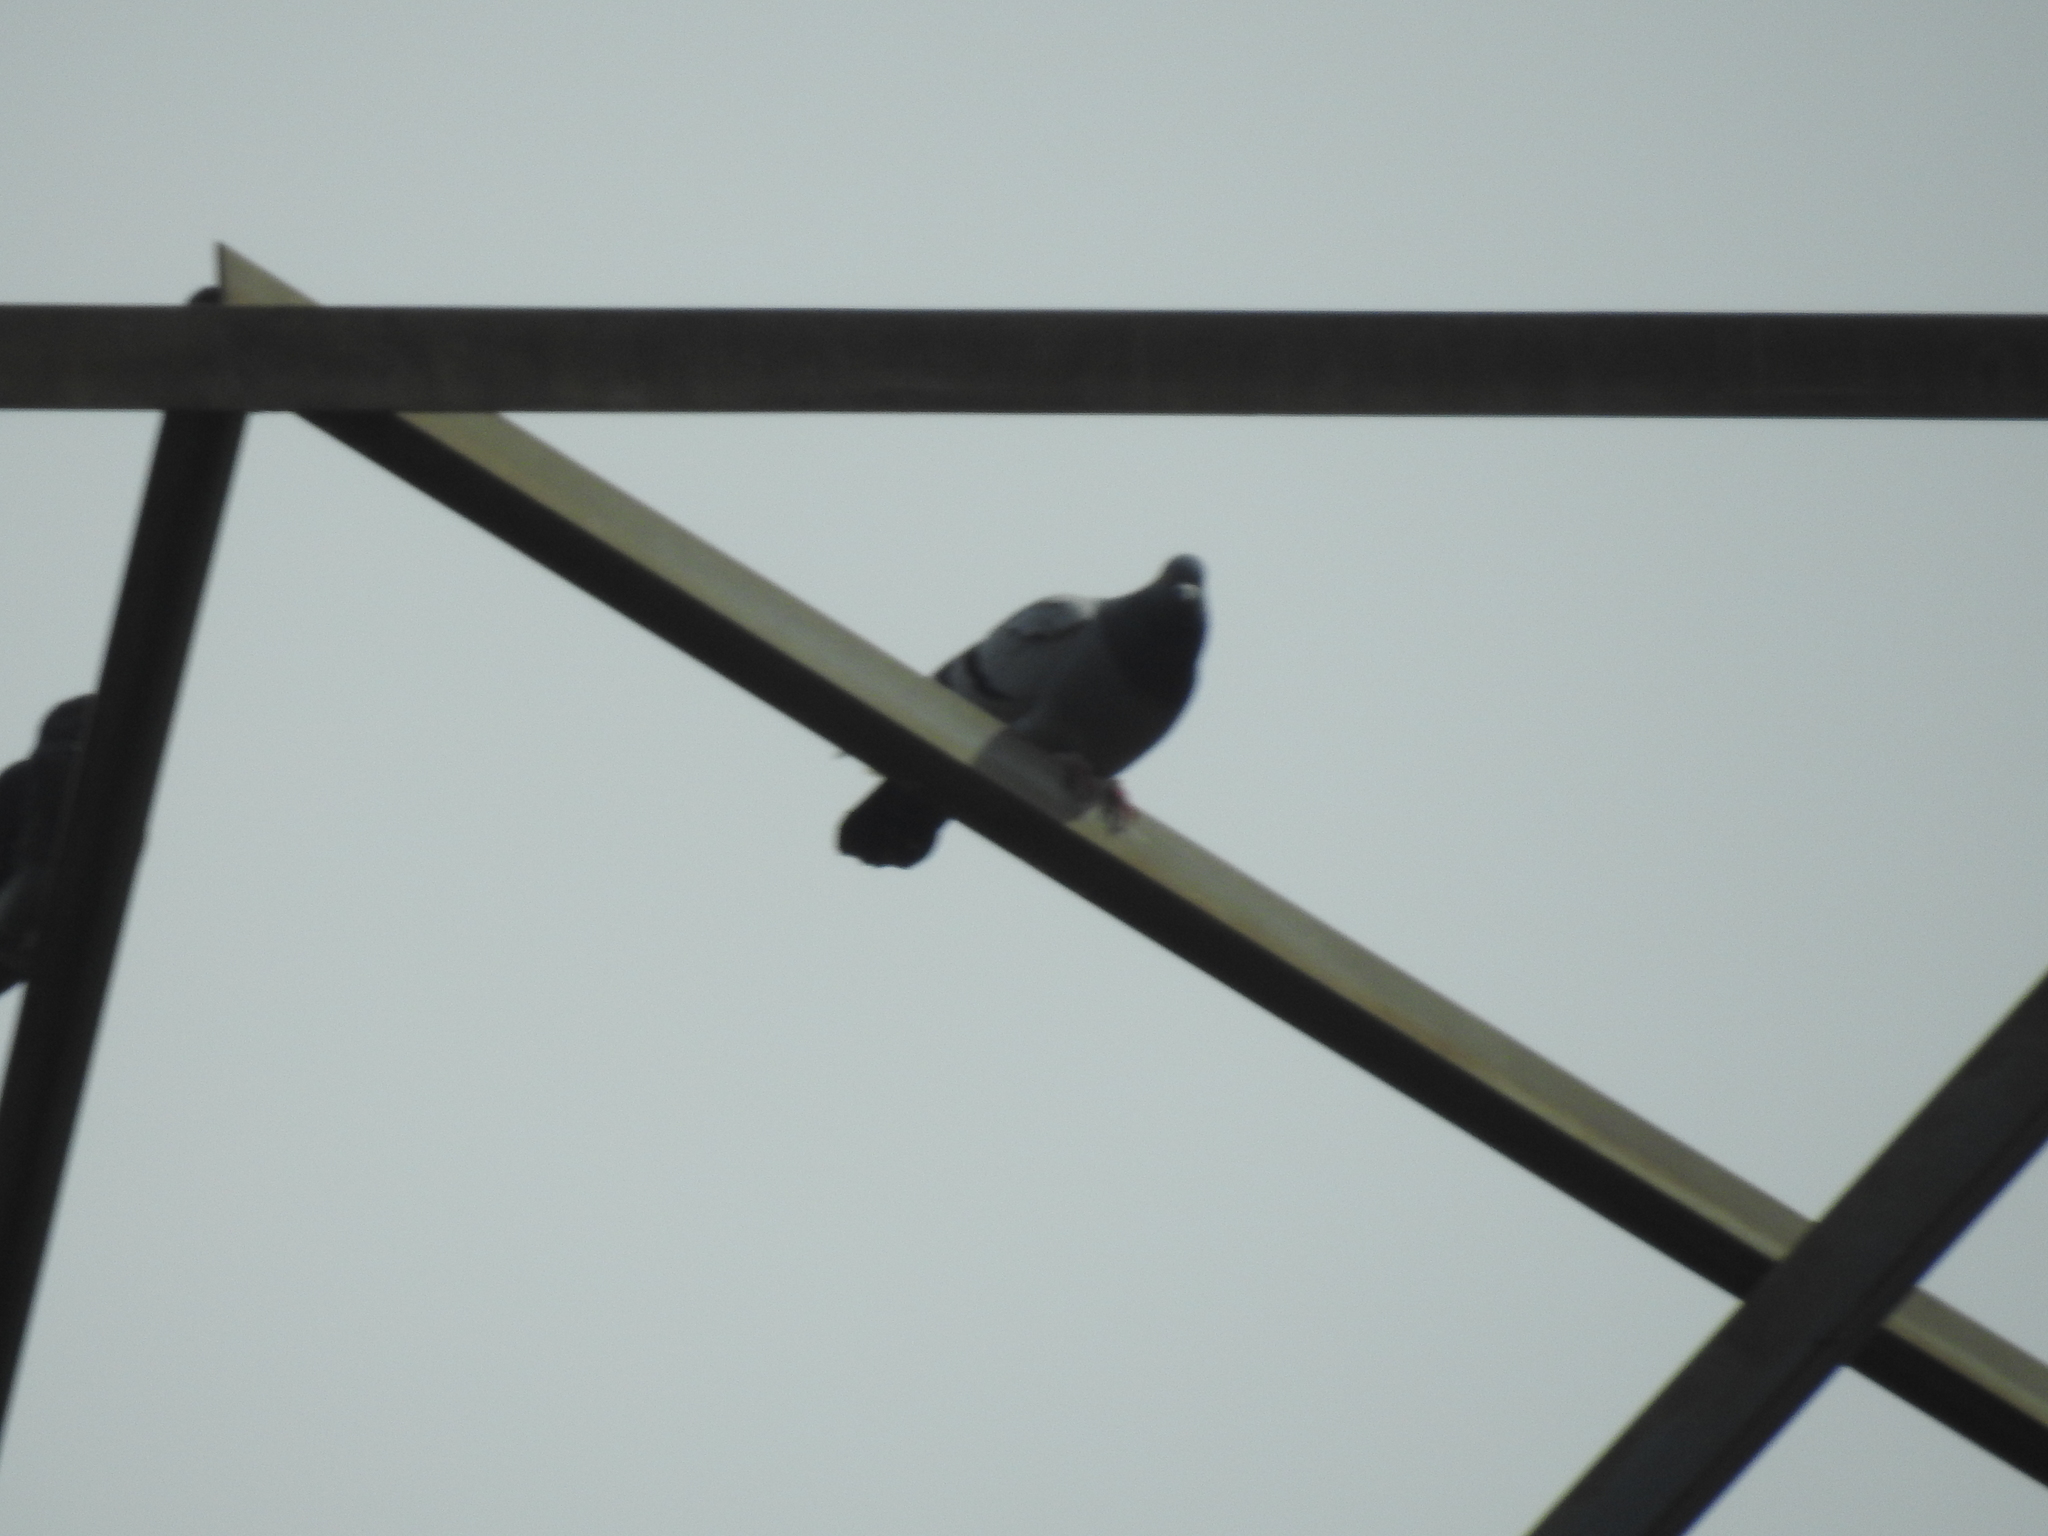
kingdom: Animalia
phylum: Chordata
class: Aves
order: Columbiformes
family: Columbidae
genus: Columba
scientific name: Columba livia
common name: Rock pigeon
